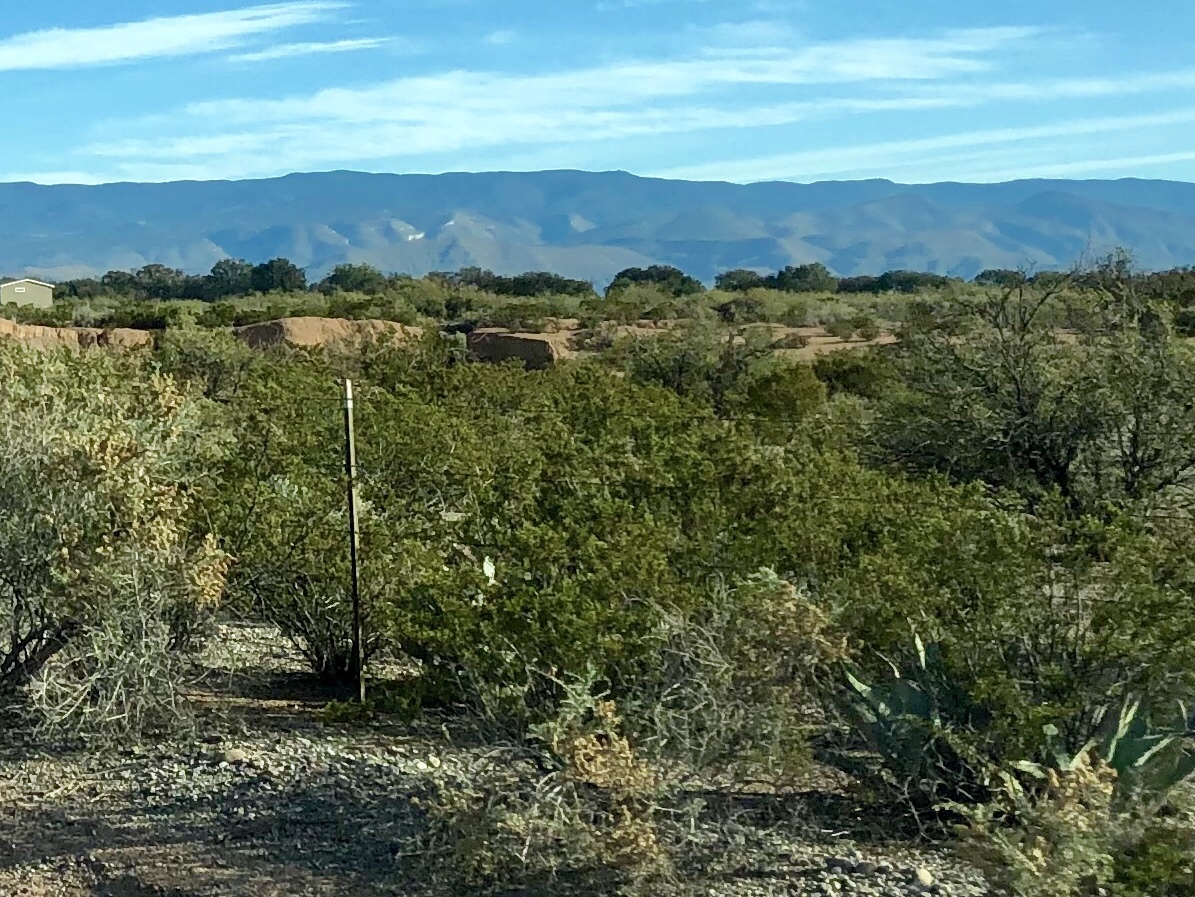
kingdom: Plantae
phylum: Tracheophyta
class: Magnoliopsida
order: Zygophyllales
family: Zygophyllaceae
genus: Larrea
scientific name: Larrea tridentata
